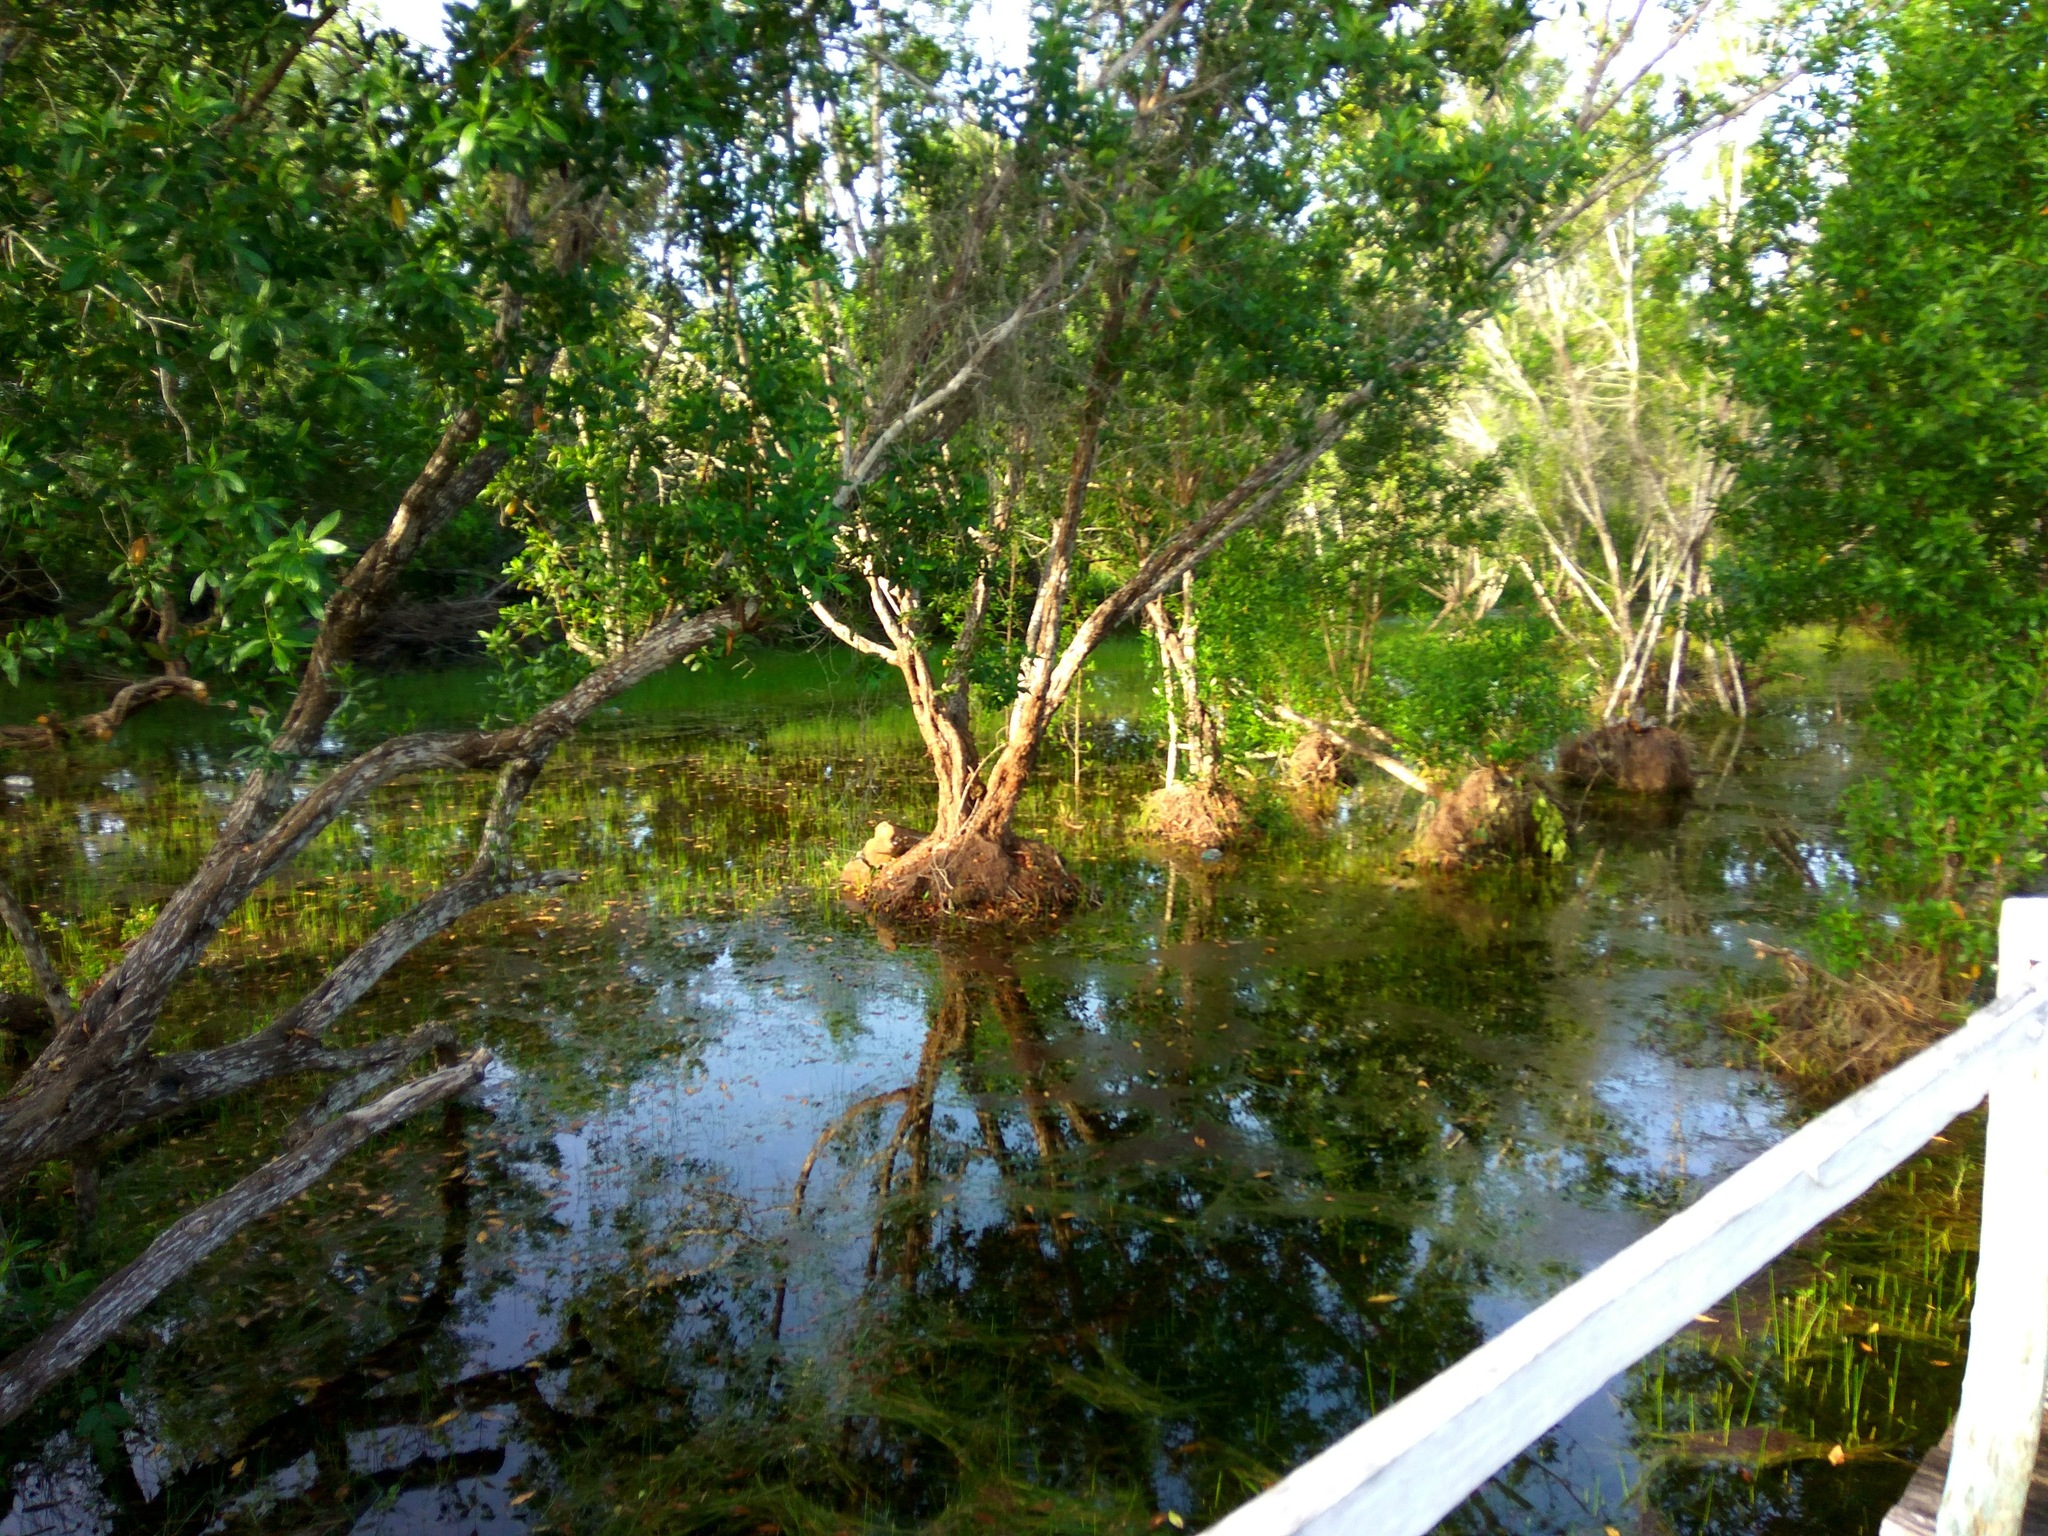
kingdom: Plantae
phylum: Tracheophyta
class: Magnoliopsida
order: Myrtales
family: Combretaceae
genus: Conocarpus
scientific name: Conocarpus erectus
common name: Button mangrove
